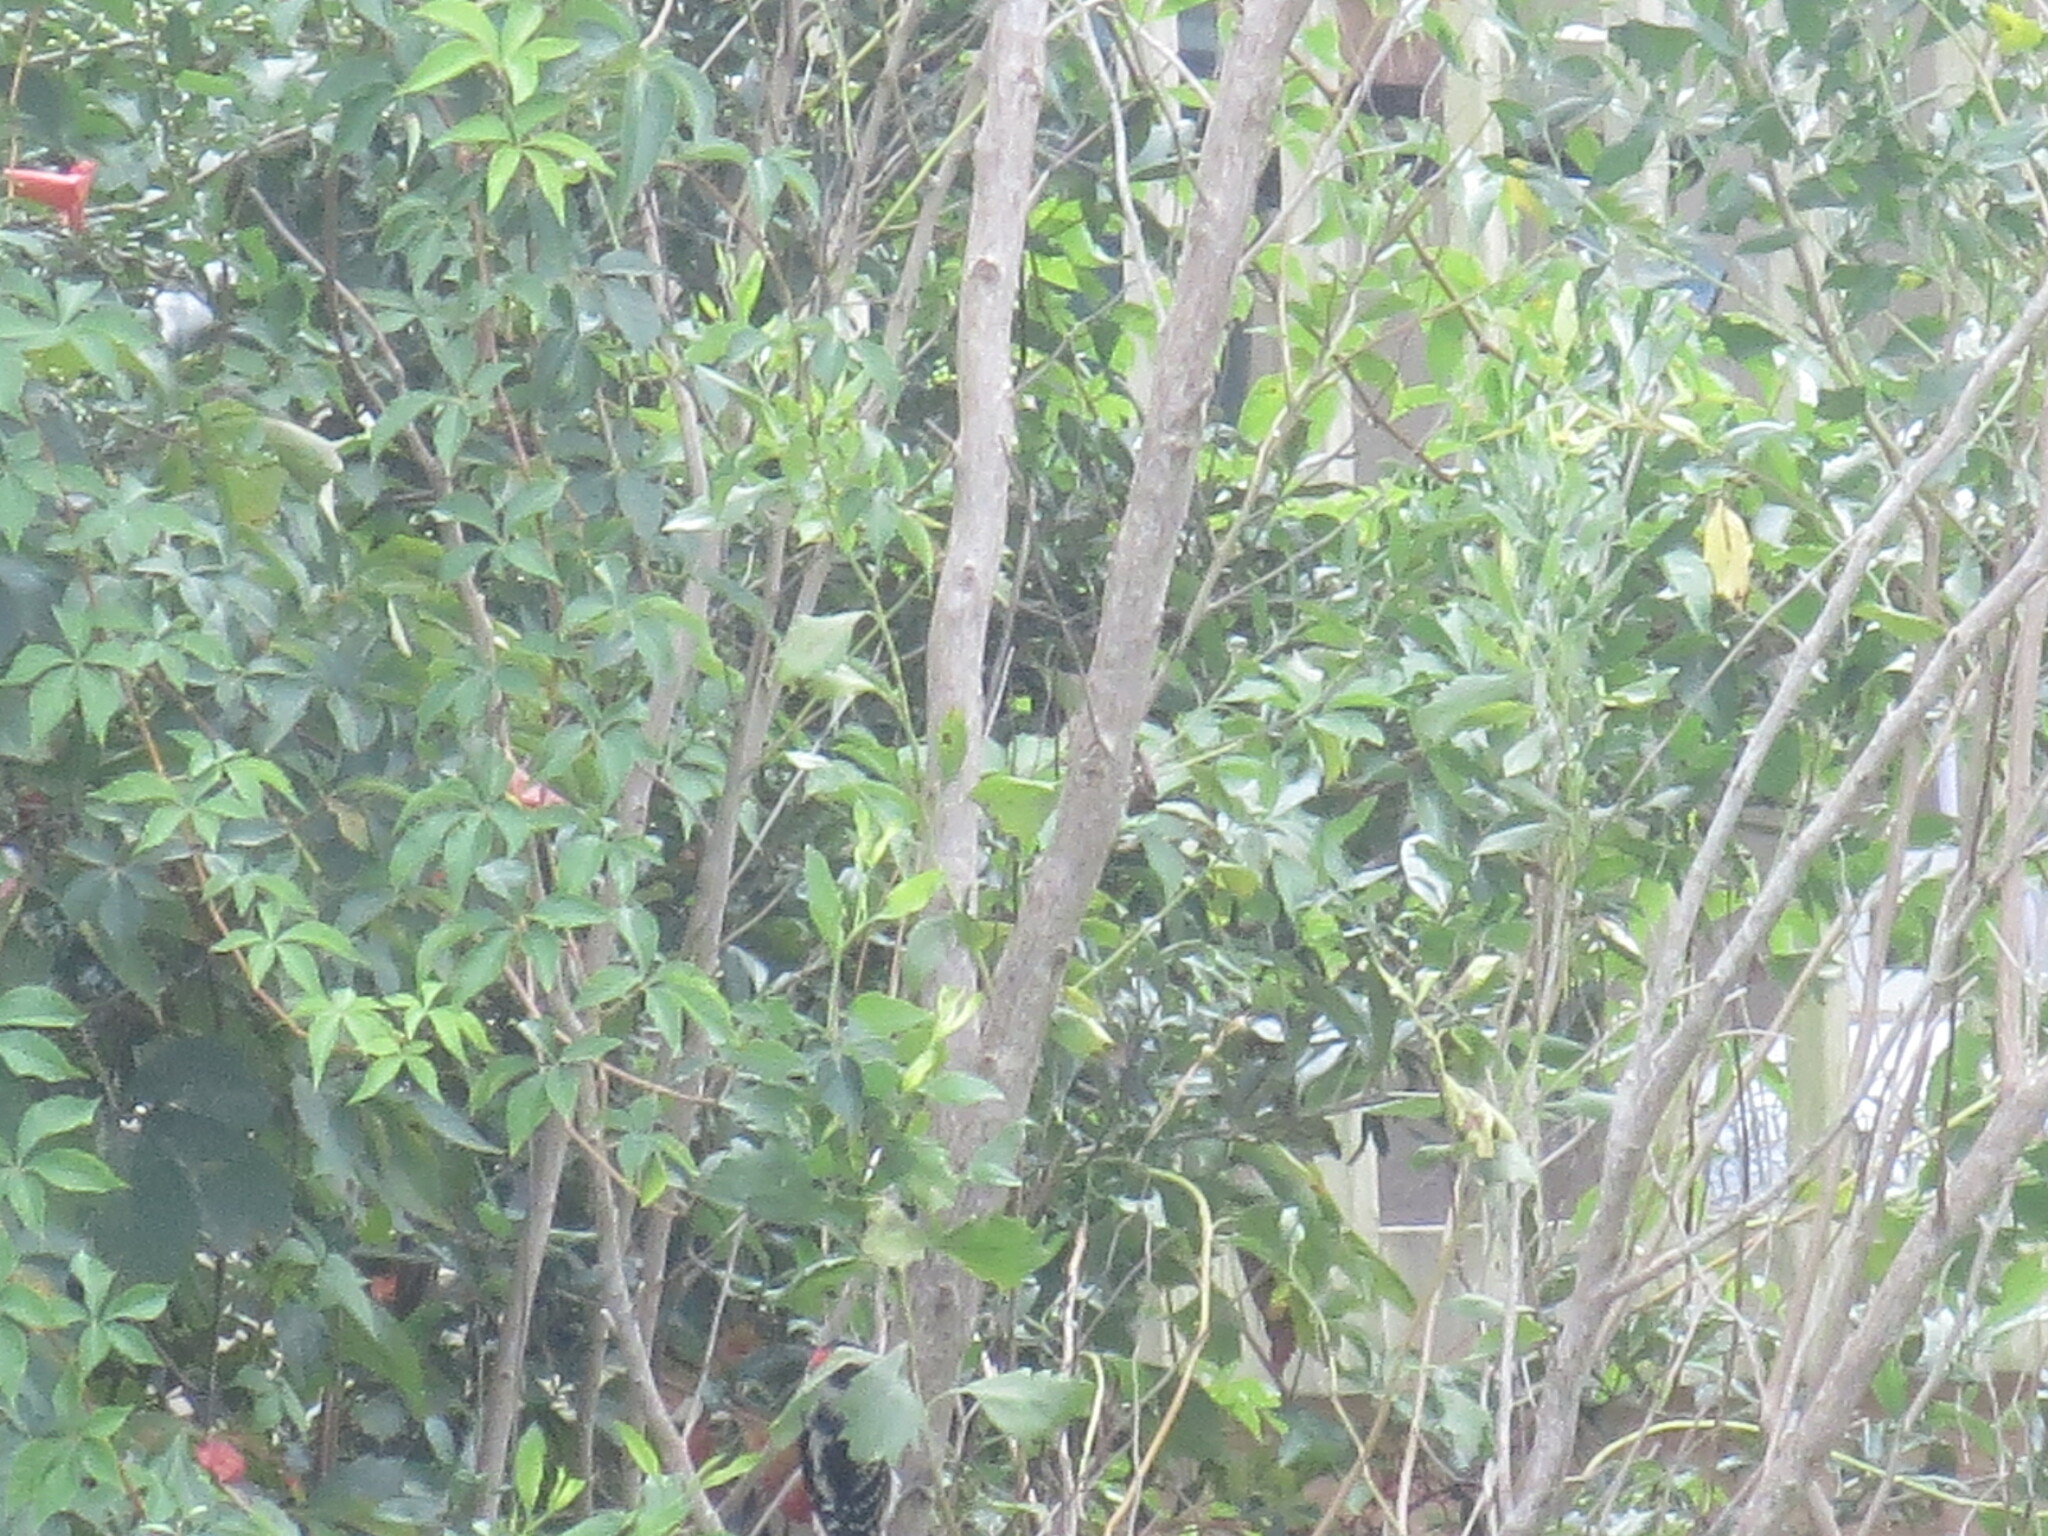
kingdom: Animalia
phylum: Chordata
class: Aves
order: Piciformes
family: Picidae
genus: Dryobates
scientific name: Dryobates pubescens
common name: Downy woodpecker
